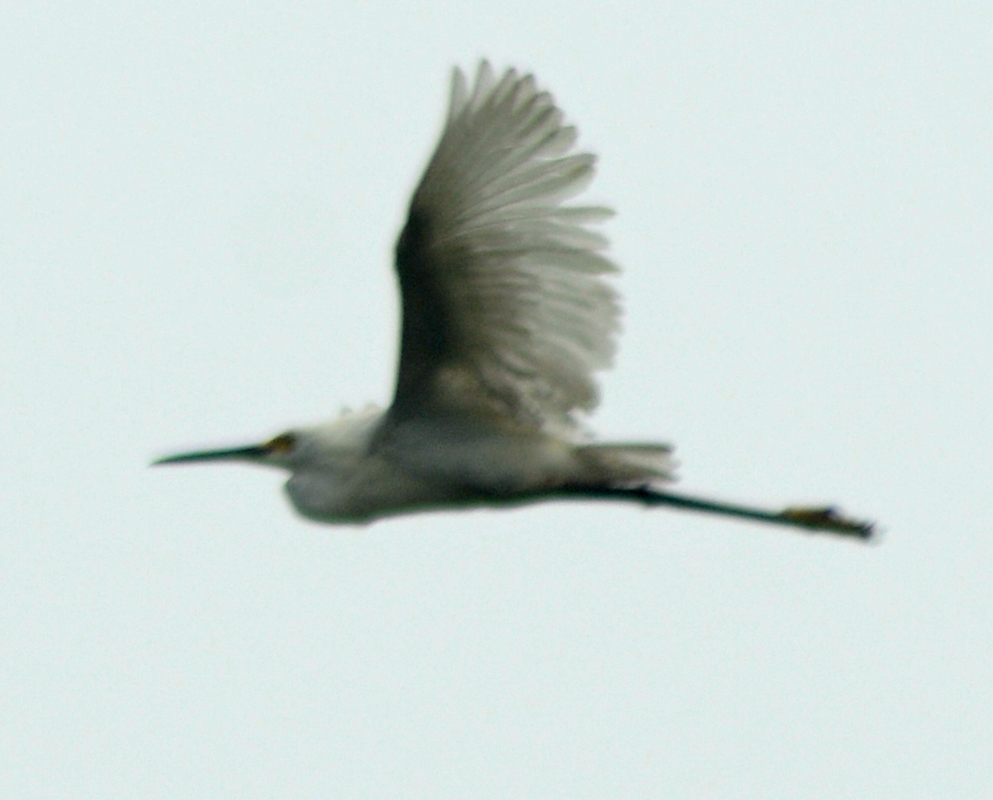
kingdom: Animalia
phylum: Chordata
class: Aves
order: Pelecaniformes
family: Ardeidae
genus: Egretta
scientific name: Egretta thula
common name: Snowy egret
